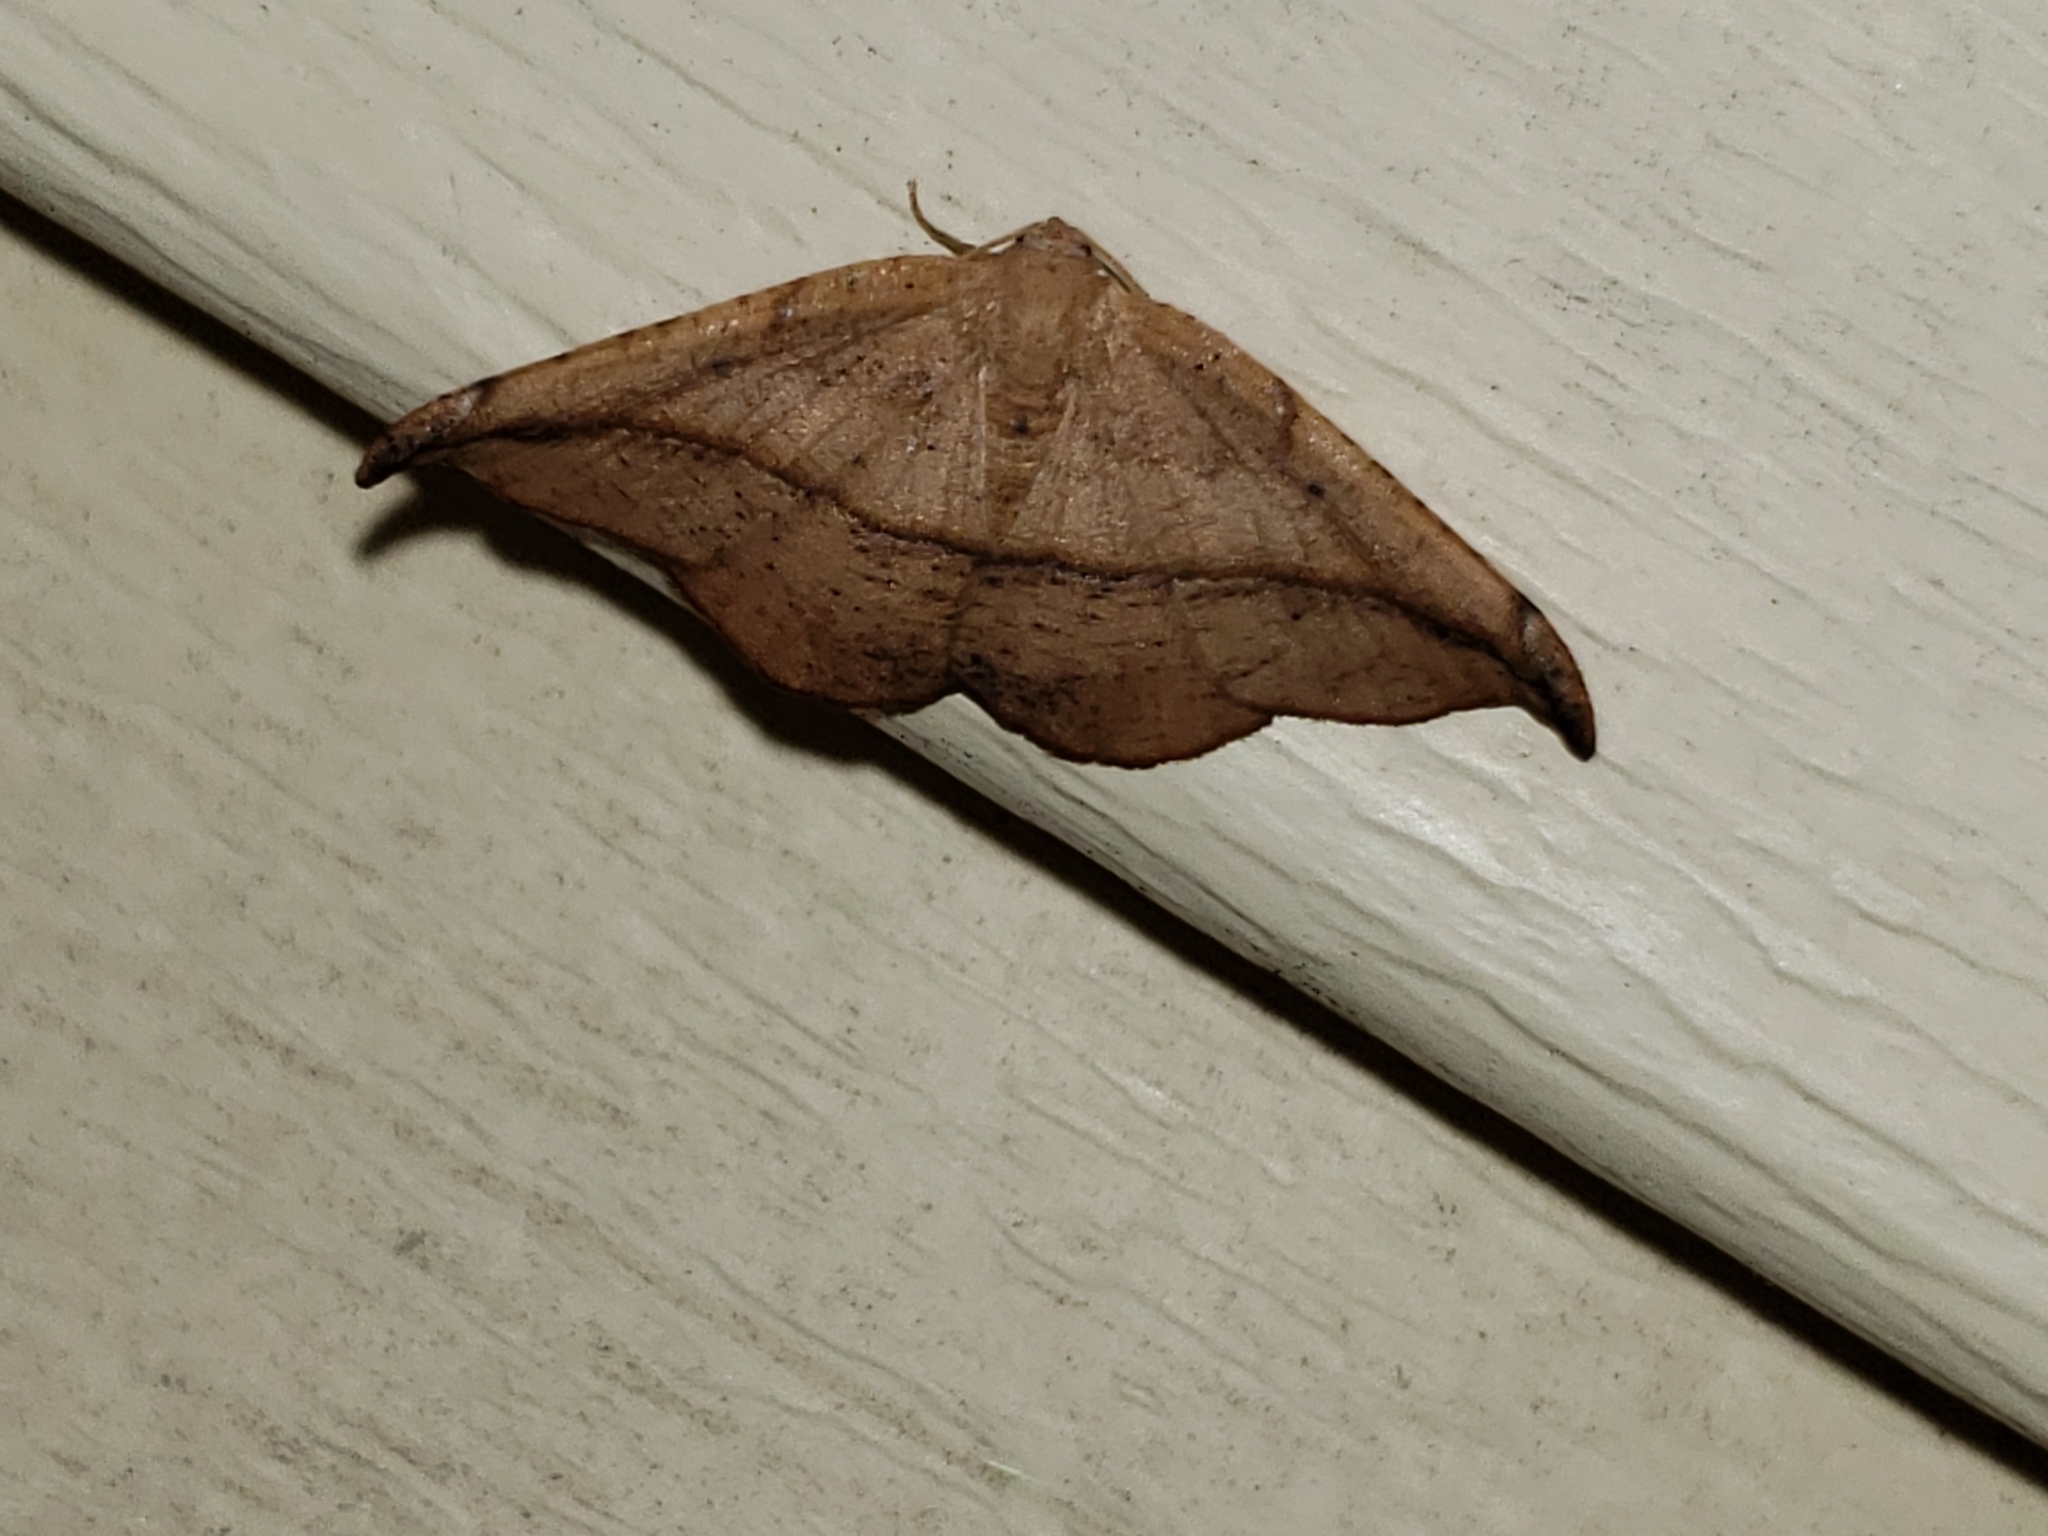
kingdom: Animalia
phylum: Arthropoda
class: Insecta
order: Lepidoptera
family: Geometridae
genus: Patalene
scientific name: Patalene olyzonaria
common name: Juniper geometer moth
